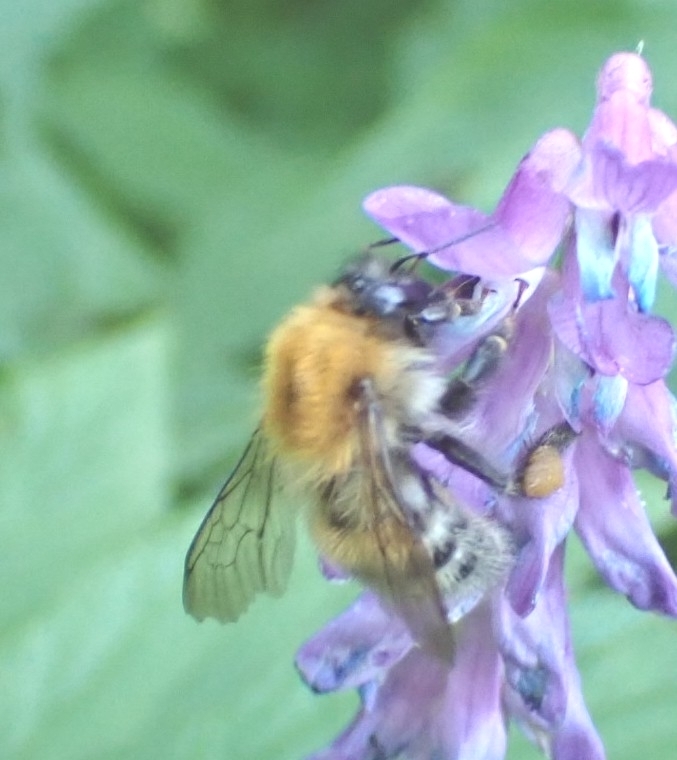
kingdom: Animalia
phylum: Arthropoda
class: Insecta
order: Hymenoptera
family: Apidae
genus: Bombus
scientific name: Bombus schrencki
